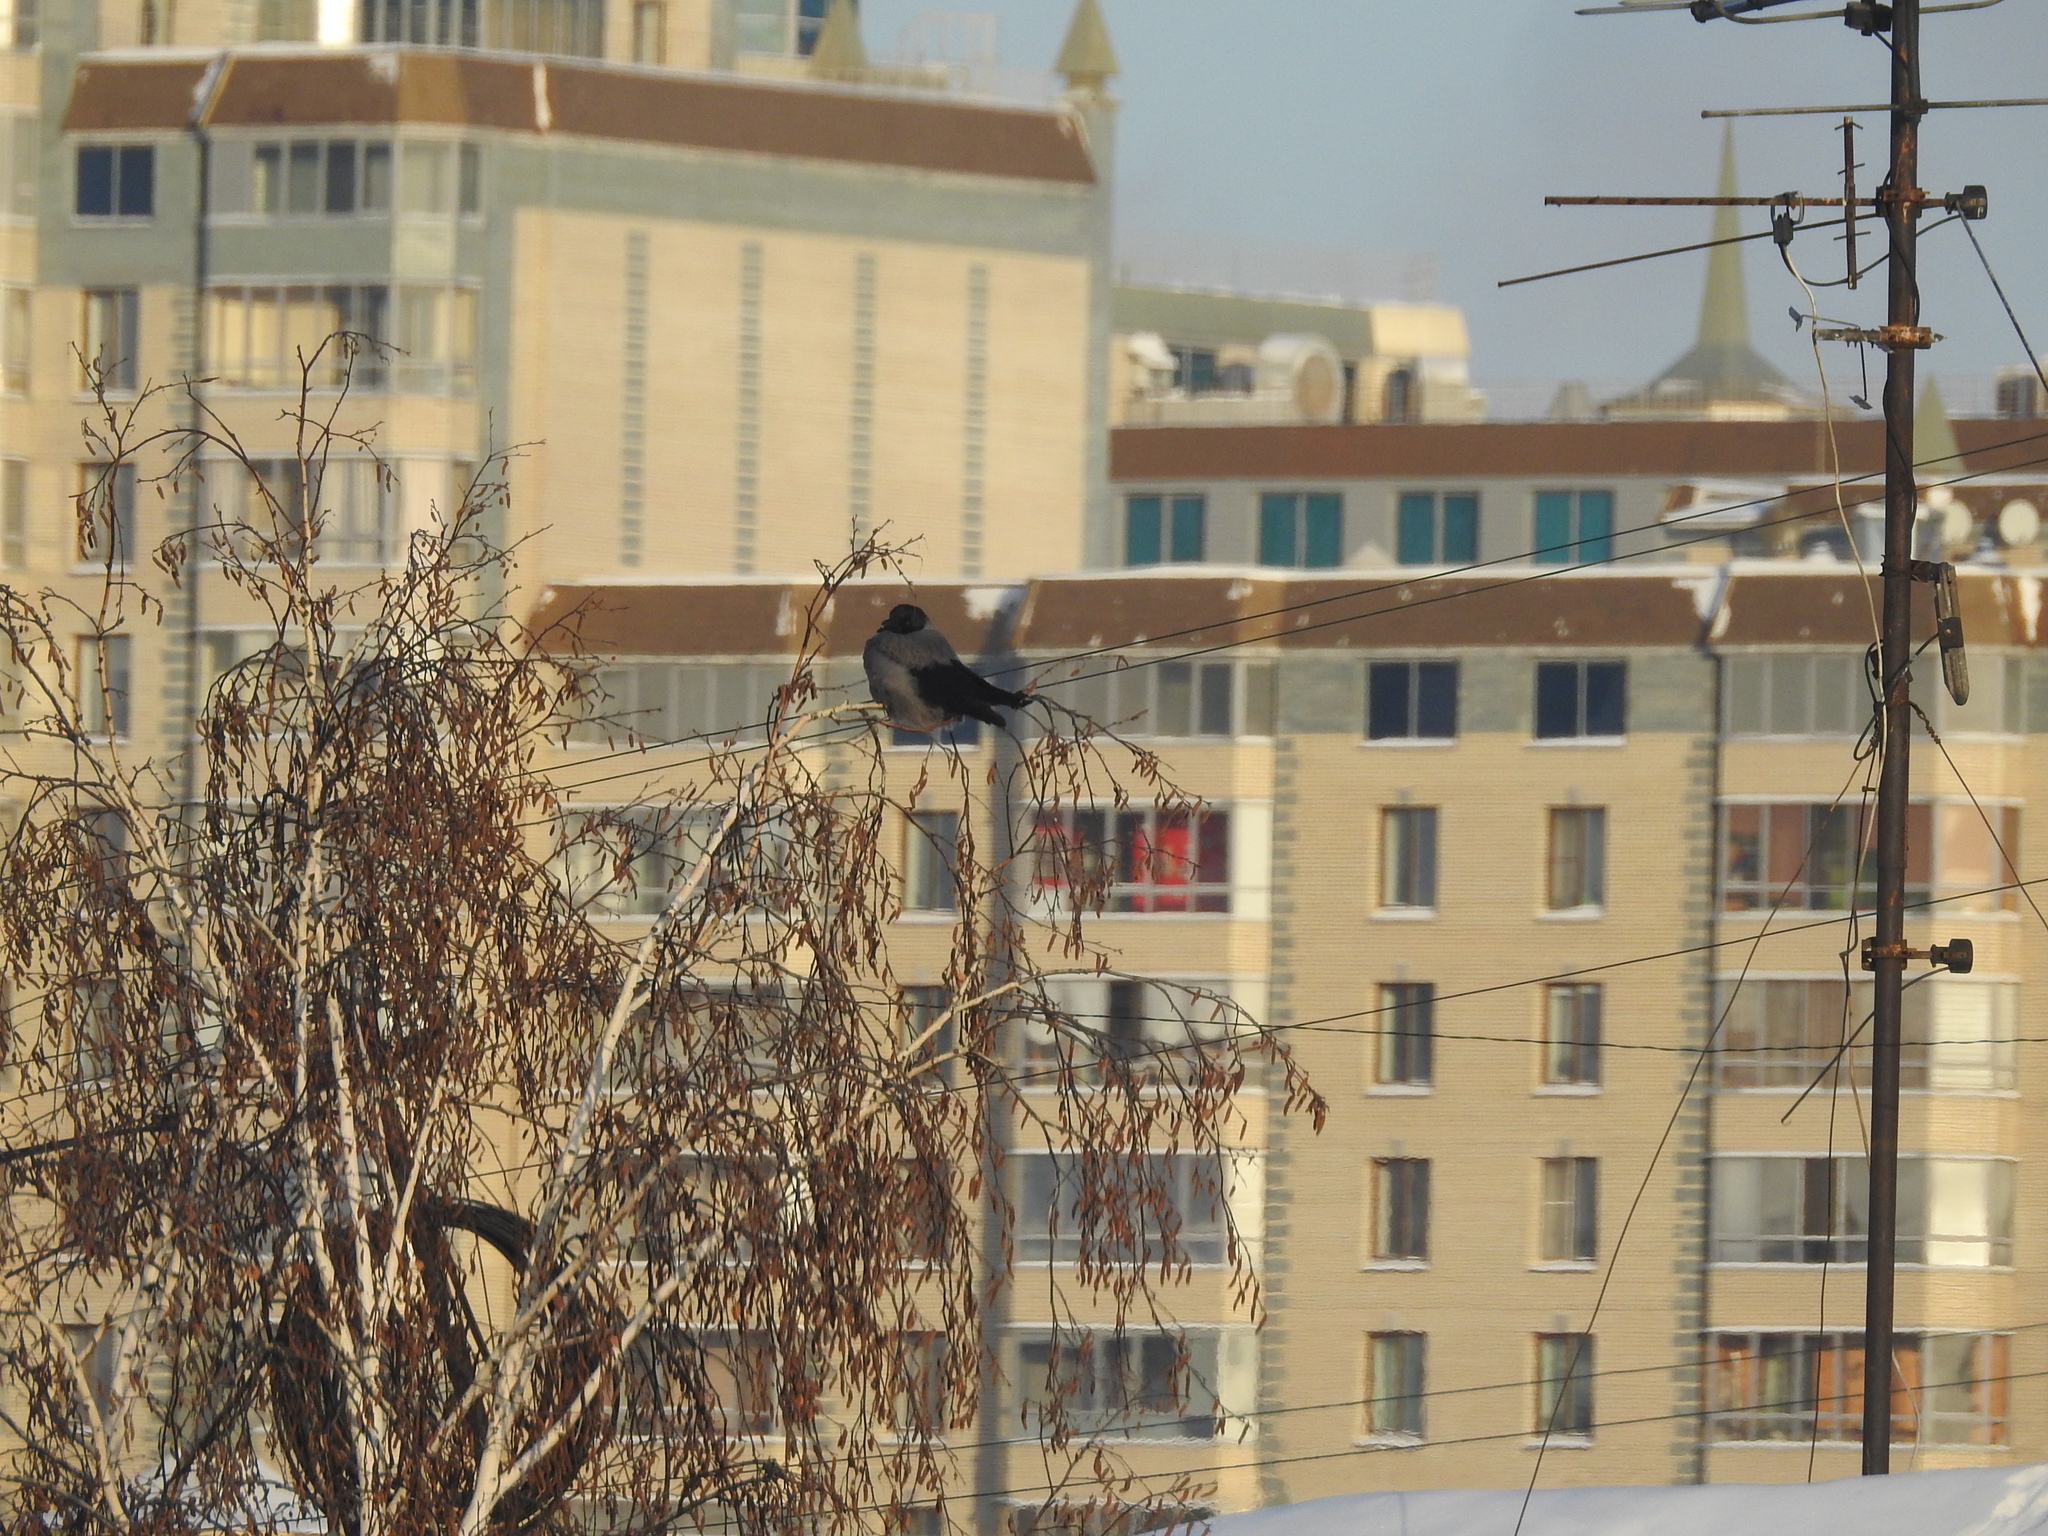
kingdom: Animalia
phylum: Chordata
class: Aves
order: Passeriformes
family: Corvidae
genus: Corvus
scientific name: Corvus cornix
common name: Hooded crow
